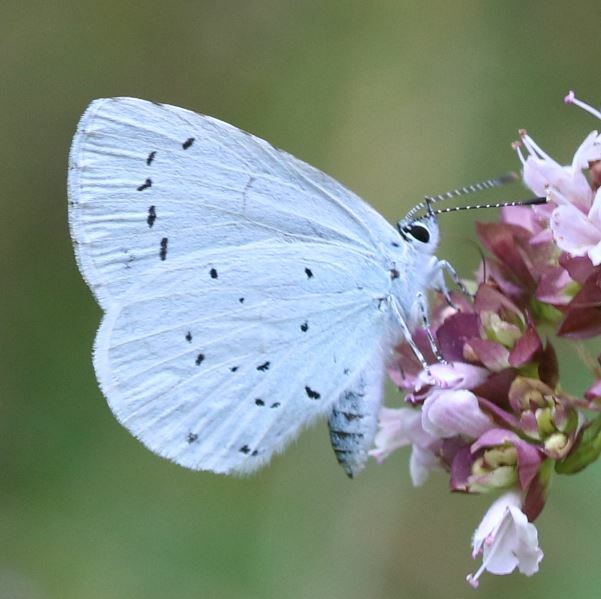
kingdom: Animalia
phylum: Arthropoda
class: Insecta
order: Lepidoptera
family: Lycaenidae
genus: Celastrina
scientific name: Celastrina argiolus
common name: Holly blue
